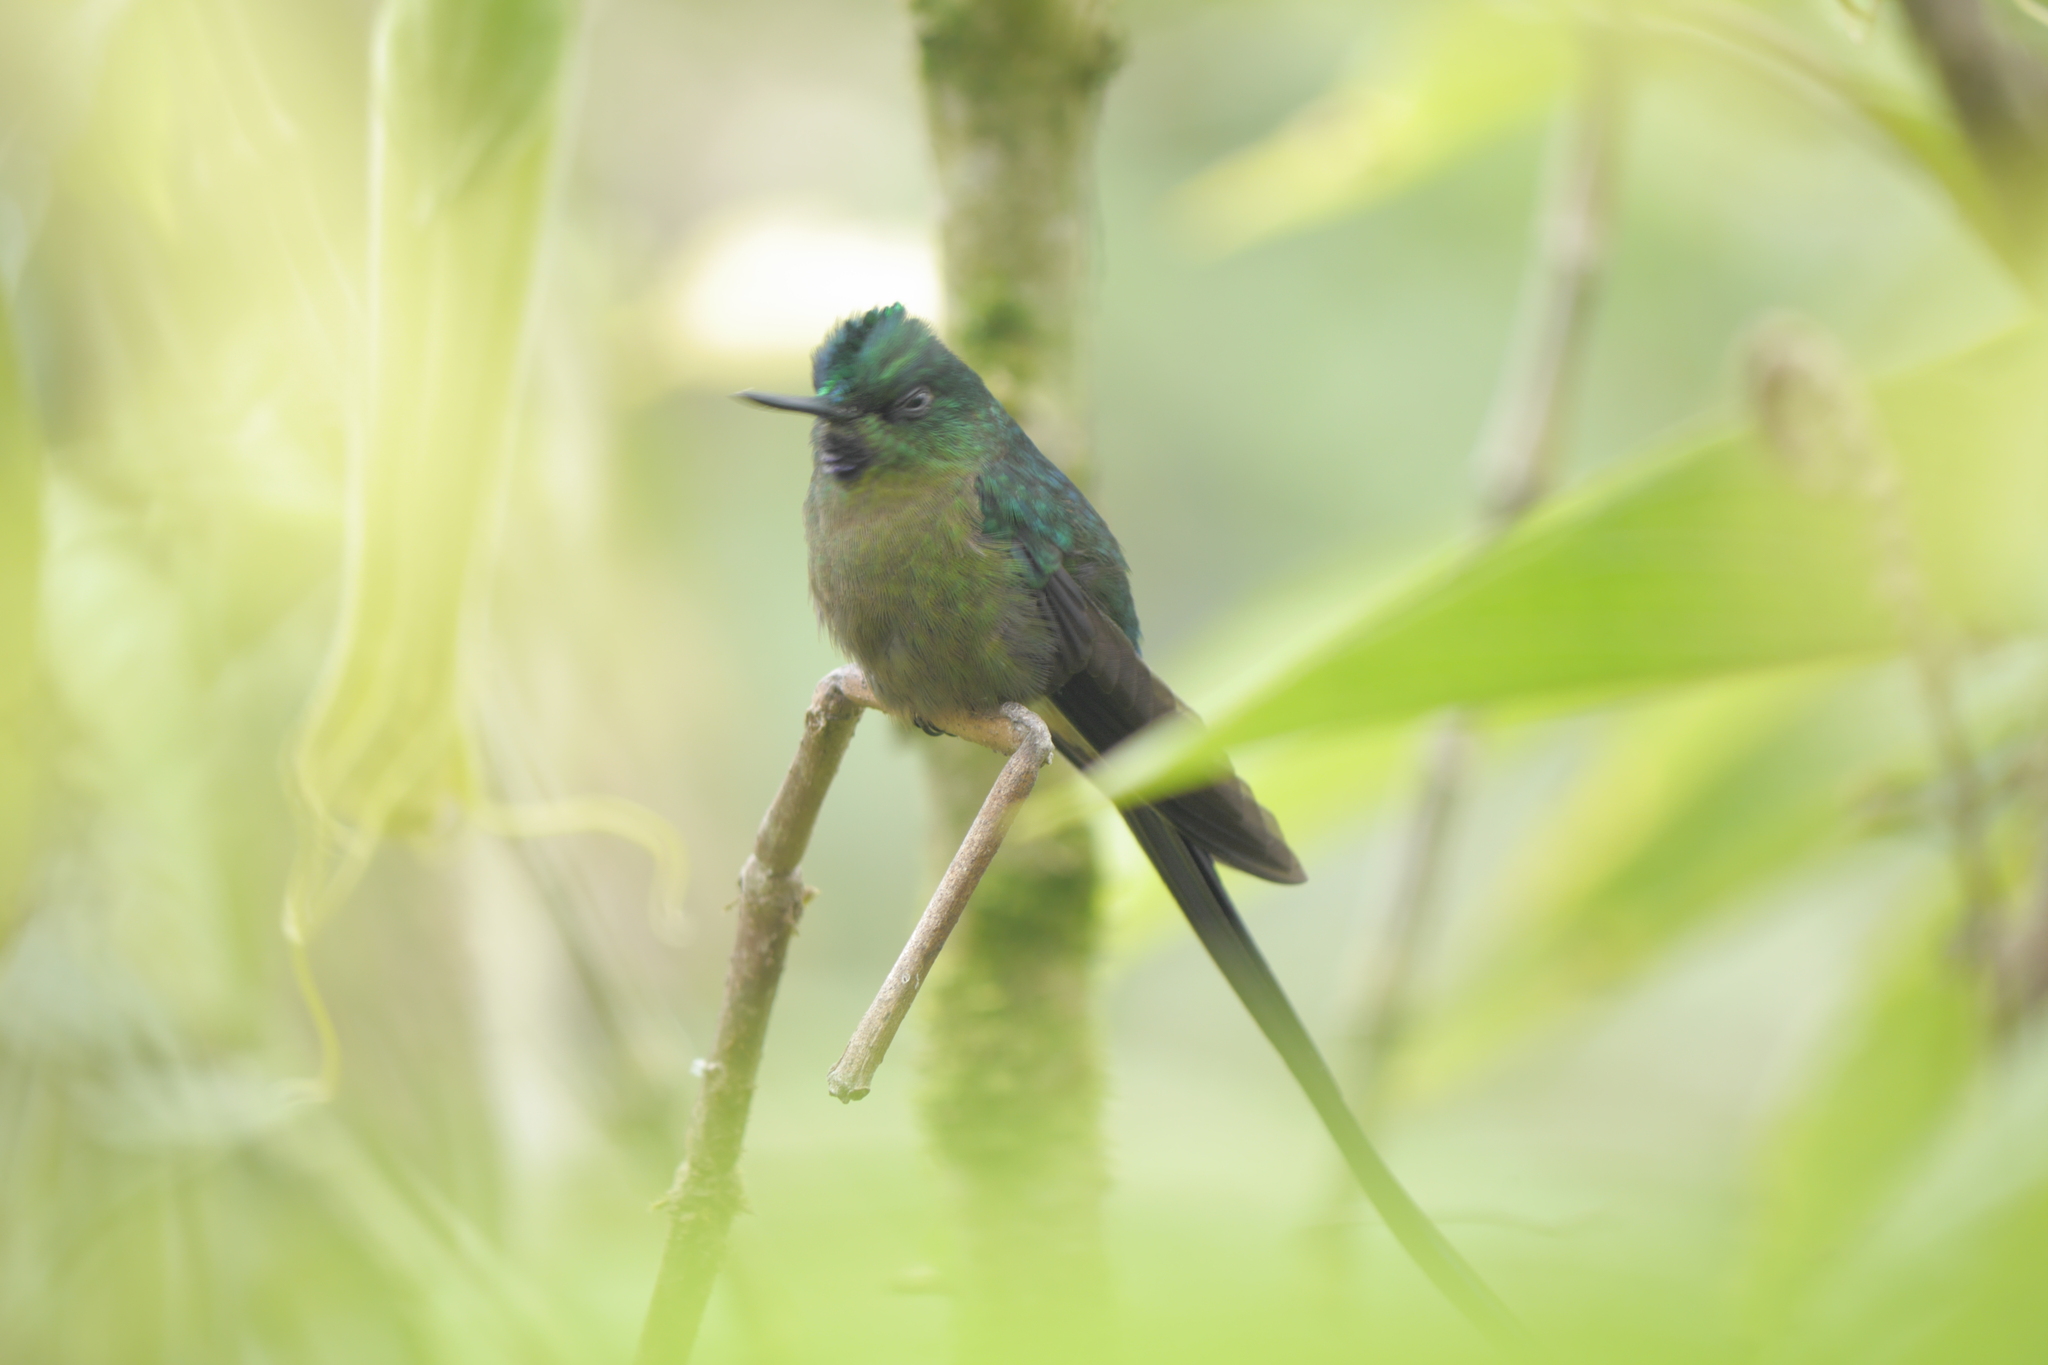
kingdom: Animalia
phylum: Chordata
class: Aves
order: Apodiformes
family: Trochilidae
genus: Aglaiocercus
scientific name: Aglaiocercus coelestis
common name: Violet-tailed sylph
